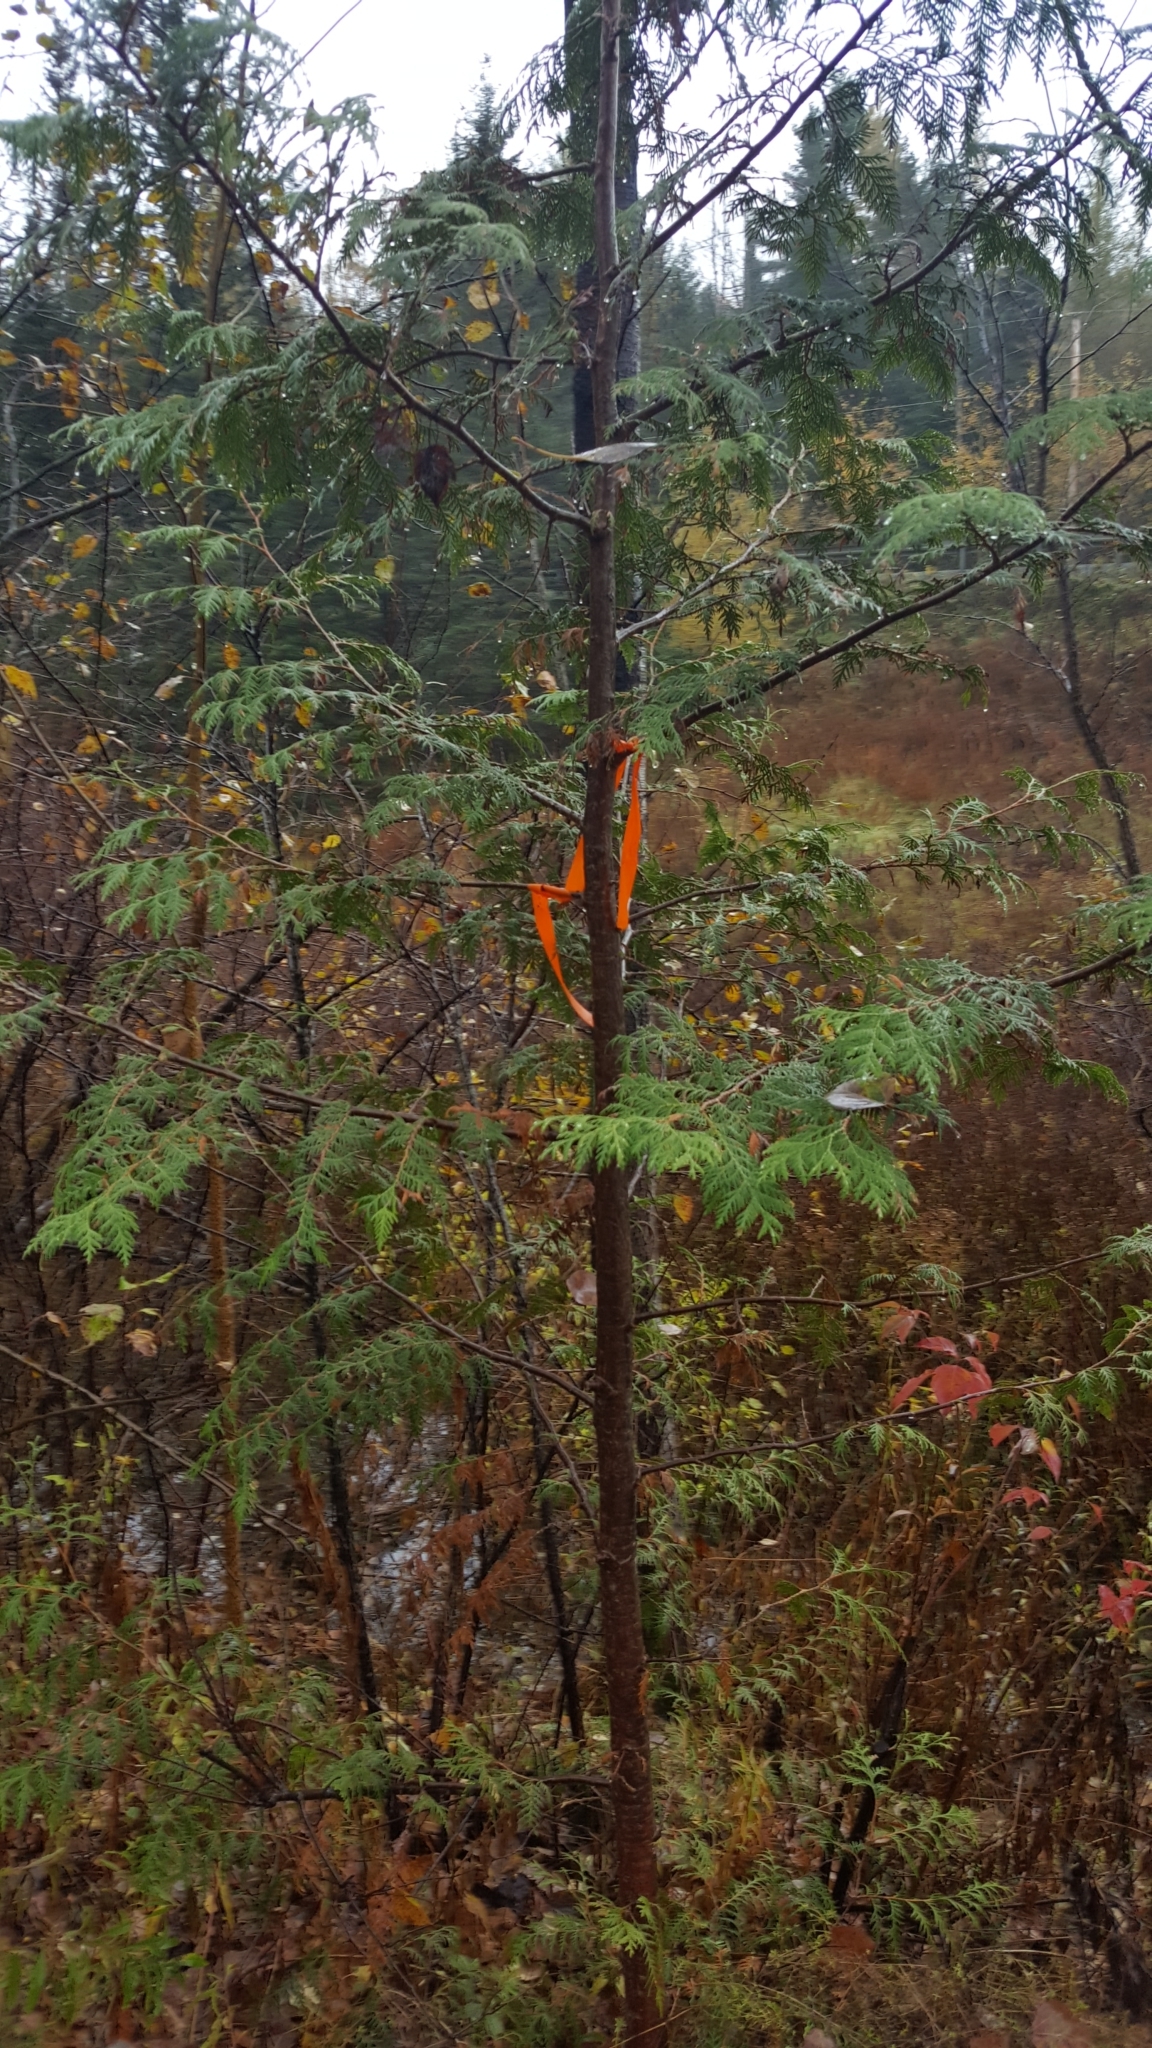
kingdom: Plantae
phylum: Tracheophyta
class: Pinopsida
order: Pinales
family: Cupressaceae
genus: Thuja
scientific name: Thuja occidentalis
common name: Northern white-cedar
